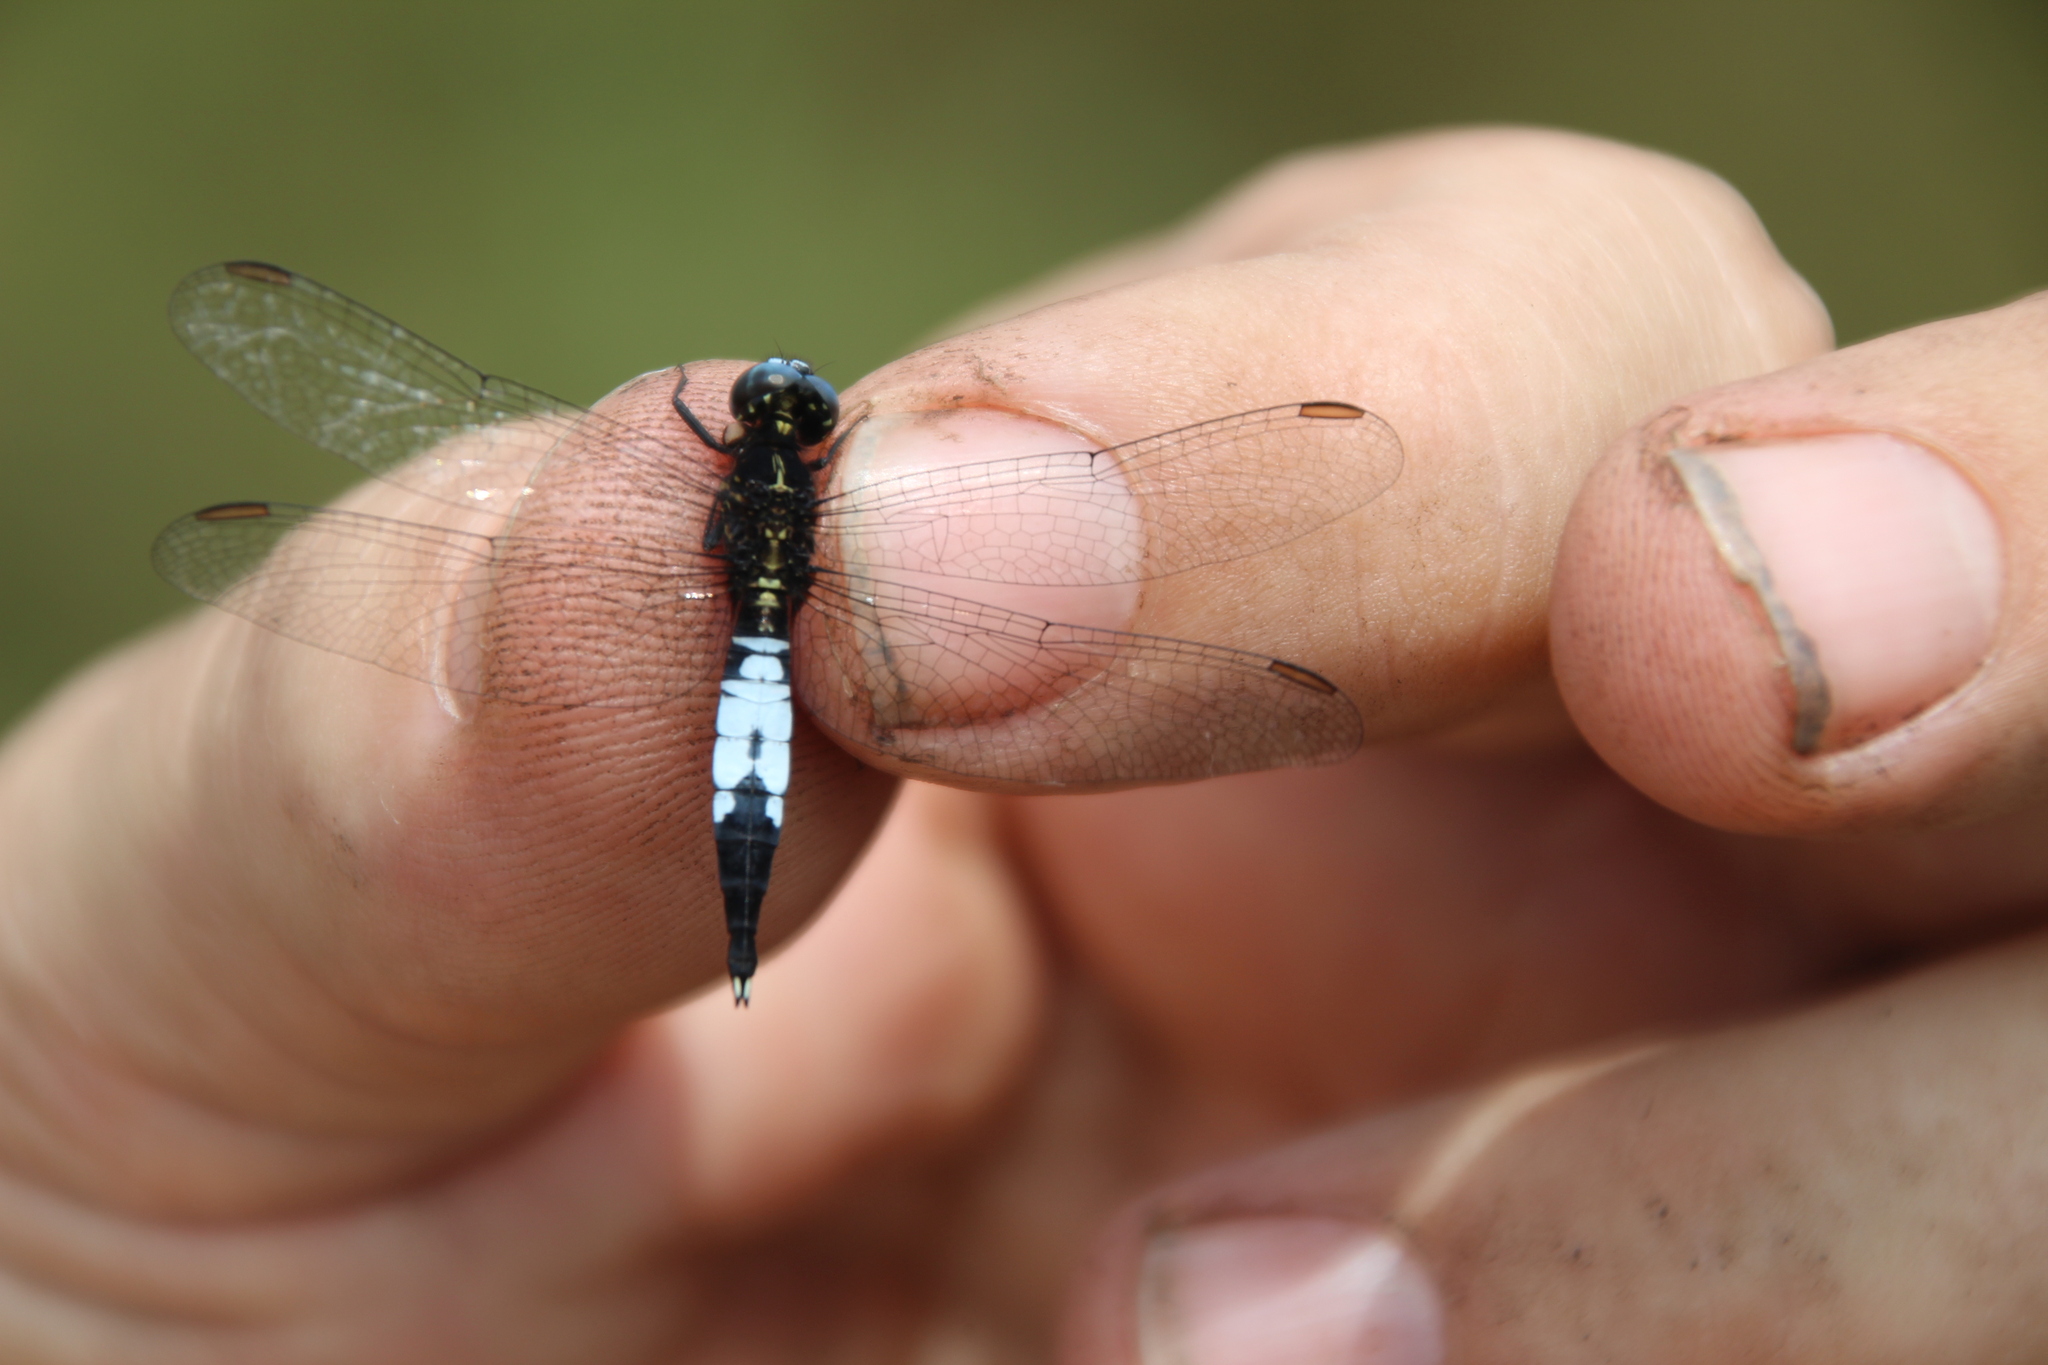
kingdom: Animalia
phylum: Arthropoda
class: Insecta
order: Odonata
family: Libellulidae
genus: Acisoma
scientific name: Acisoma trifidum
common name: Ivory pintail
